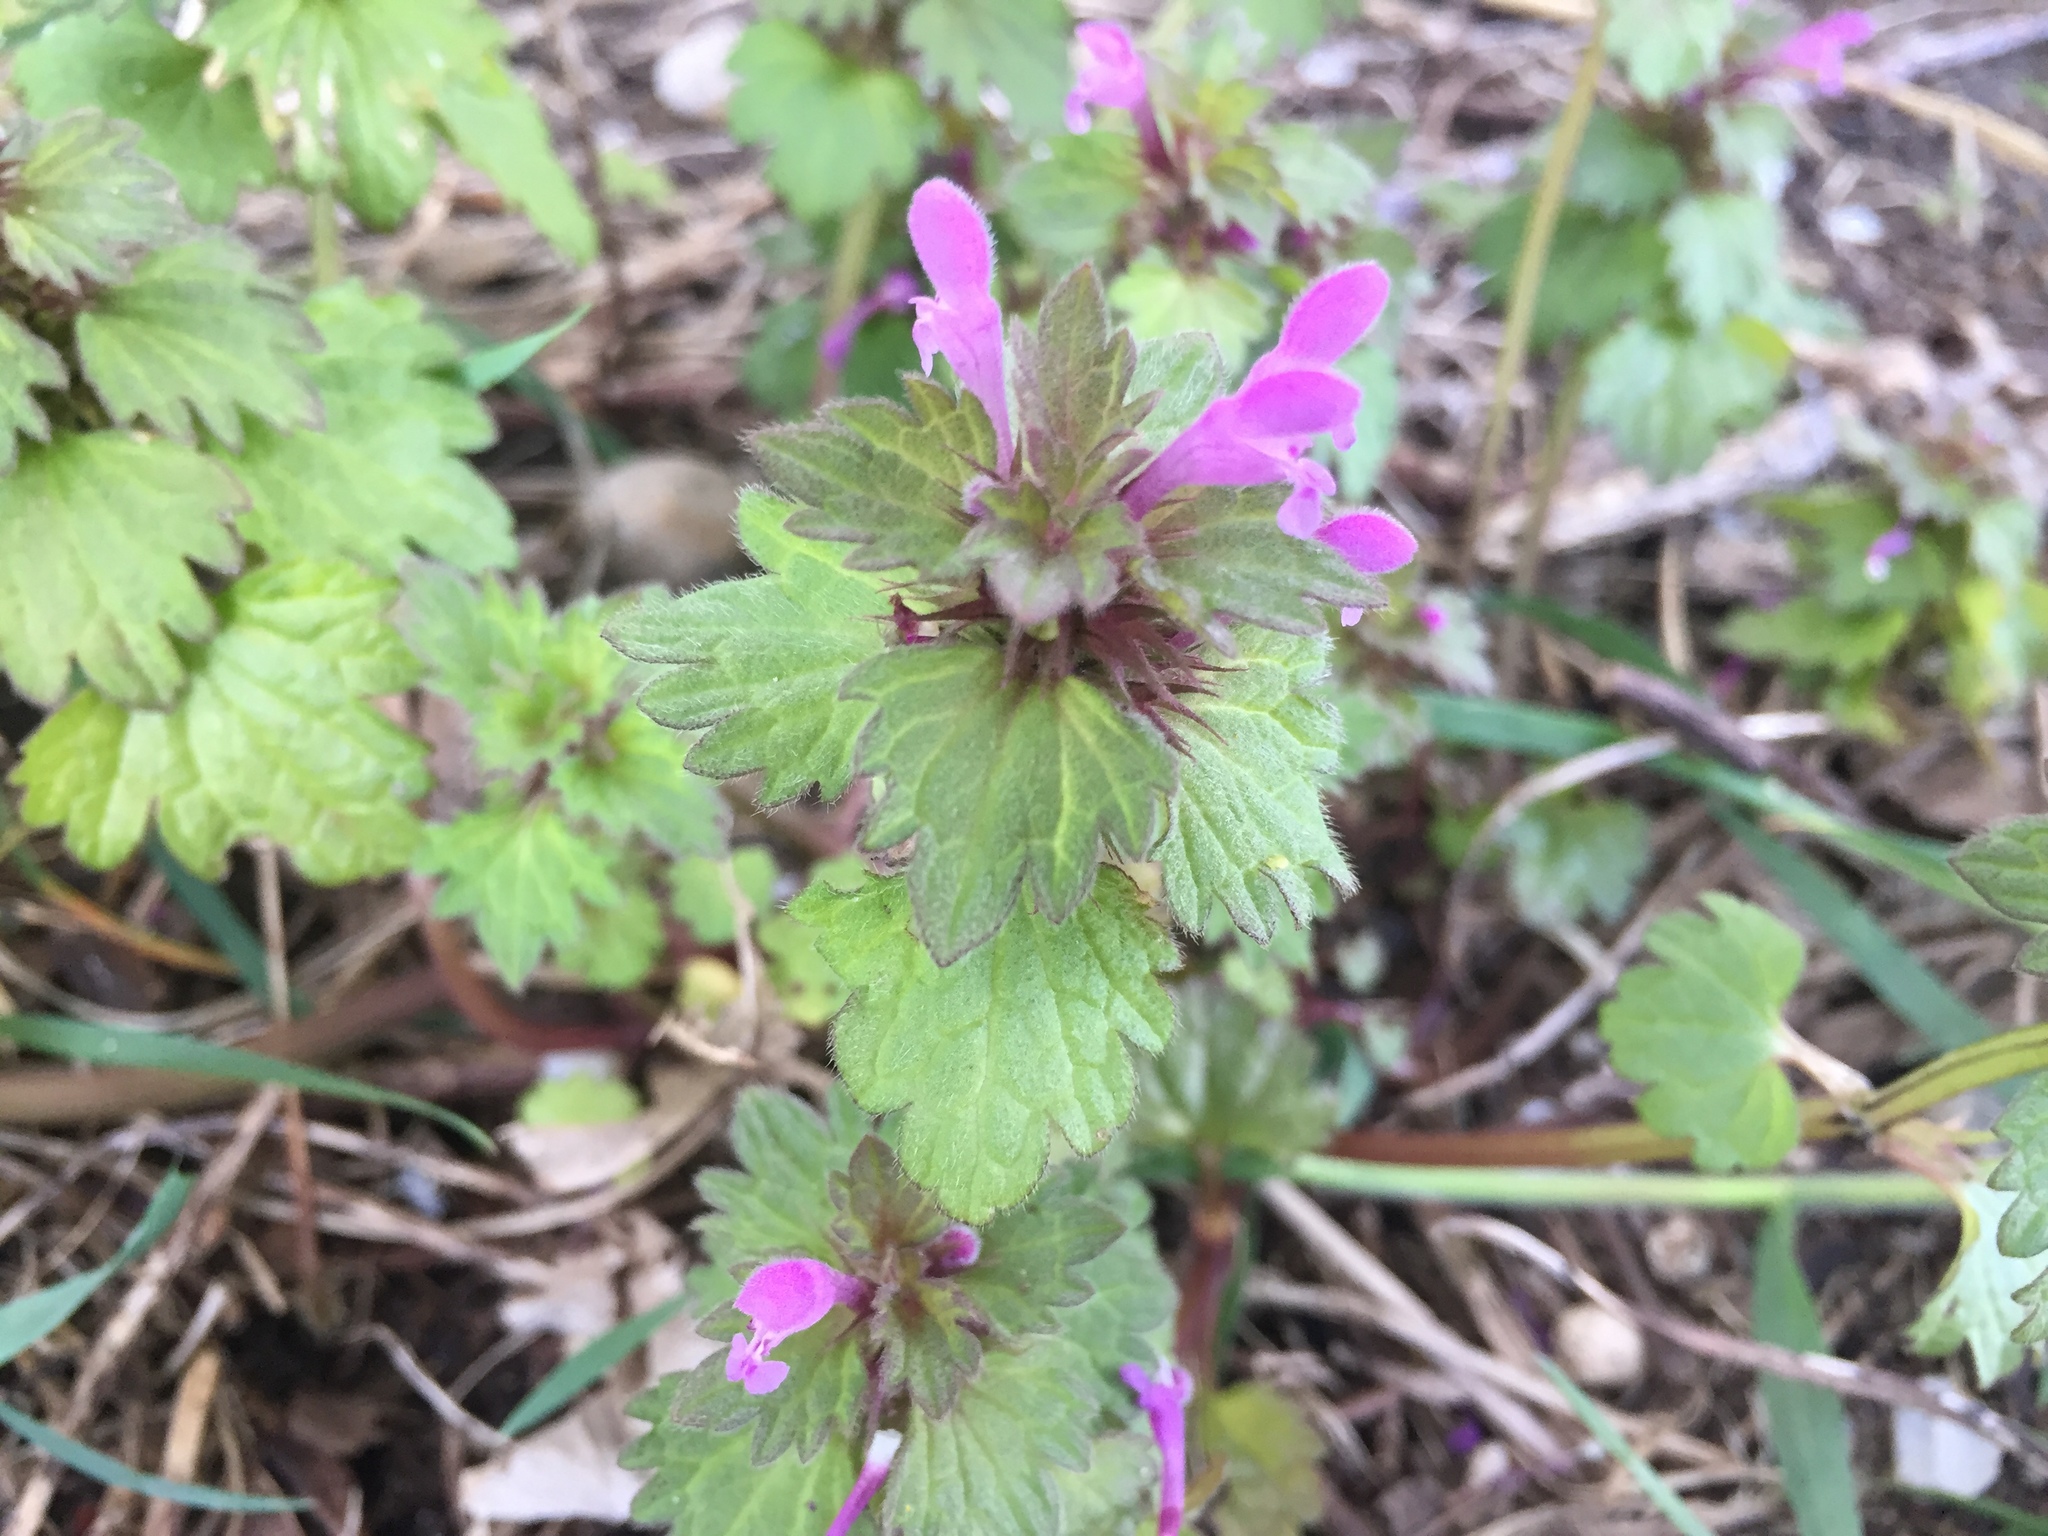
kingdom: Plantae
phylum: Tracheophyta
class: Magnoliopsida
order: Lamiales
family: Lamiaceae
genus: Lamium
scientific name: Lamium hybridum
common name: Cut-leaved dead-nettle
